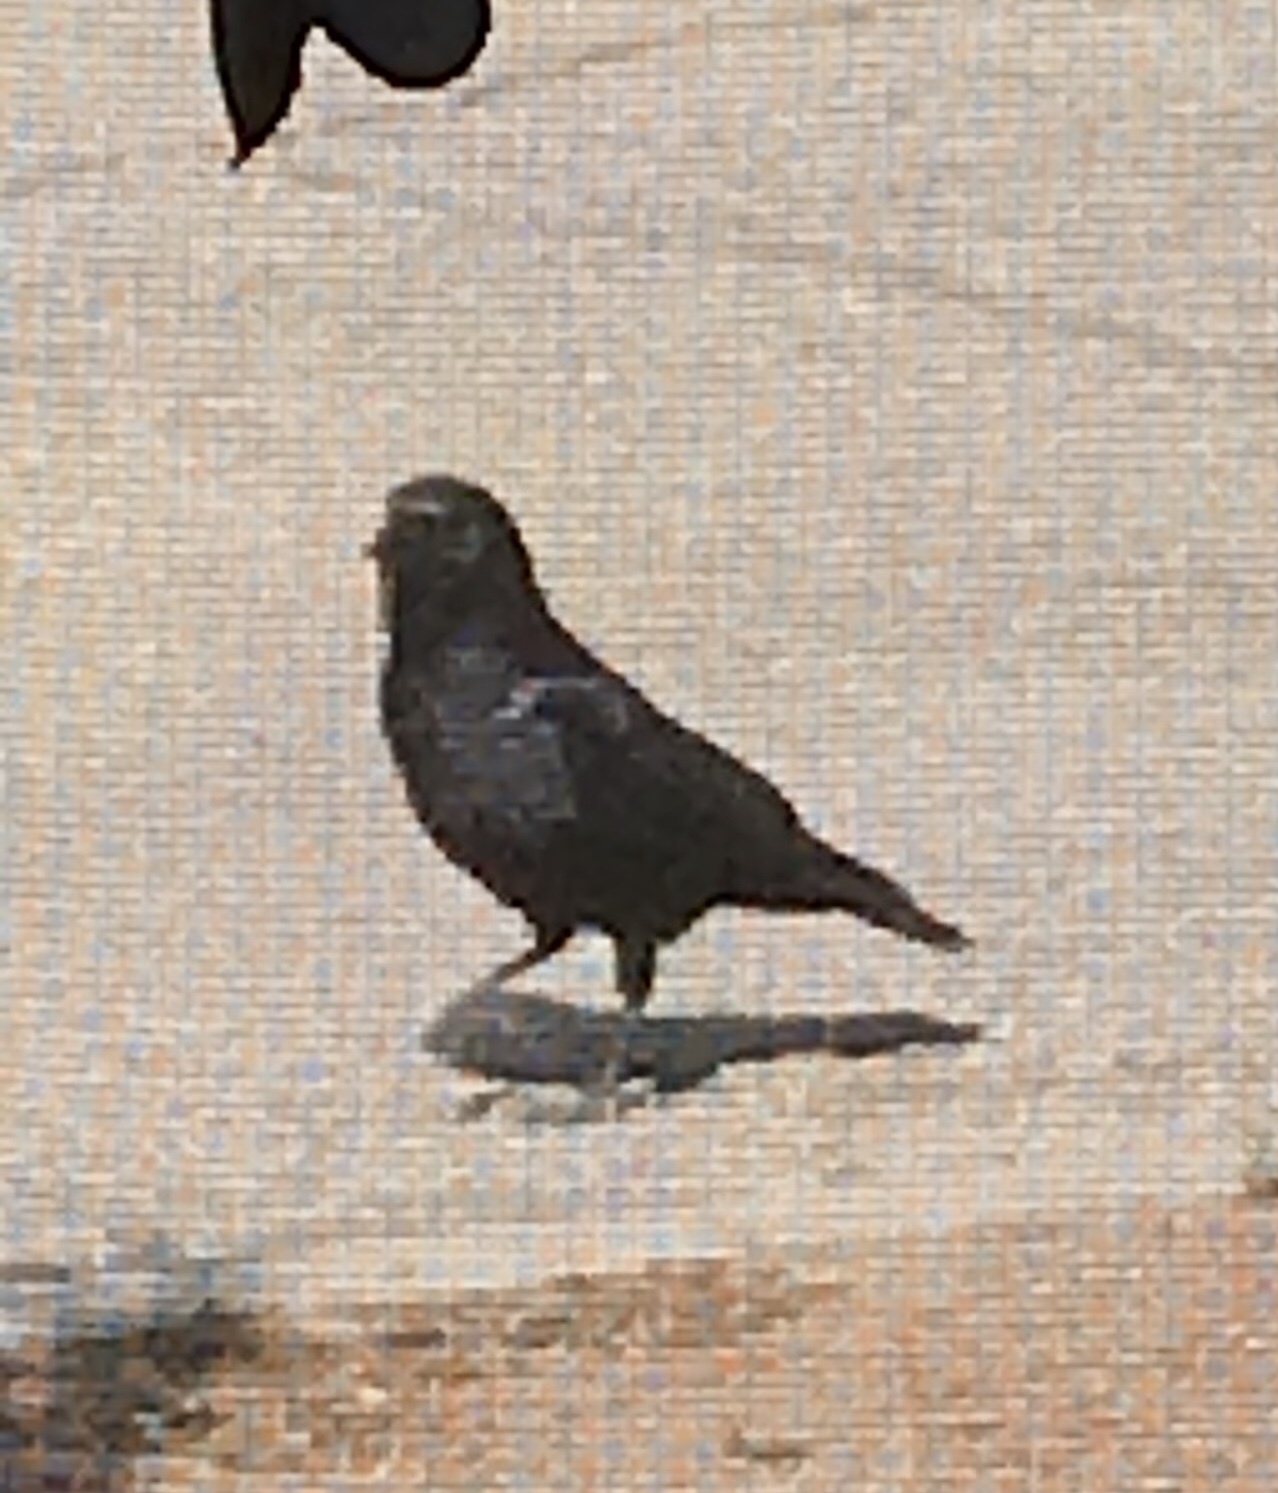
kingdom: Animalia
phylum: Chordata
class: Aves
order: Passeriformes
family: Corvidae
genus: Corvus
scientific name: Corvus brachyrhynchos
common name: American crow
